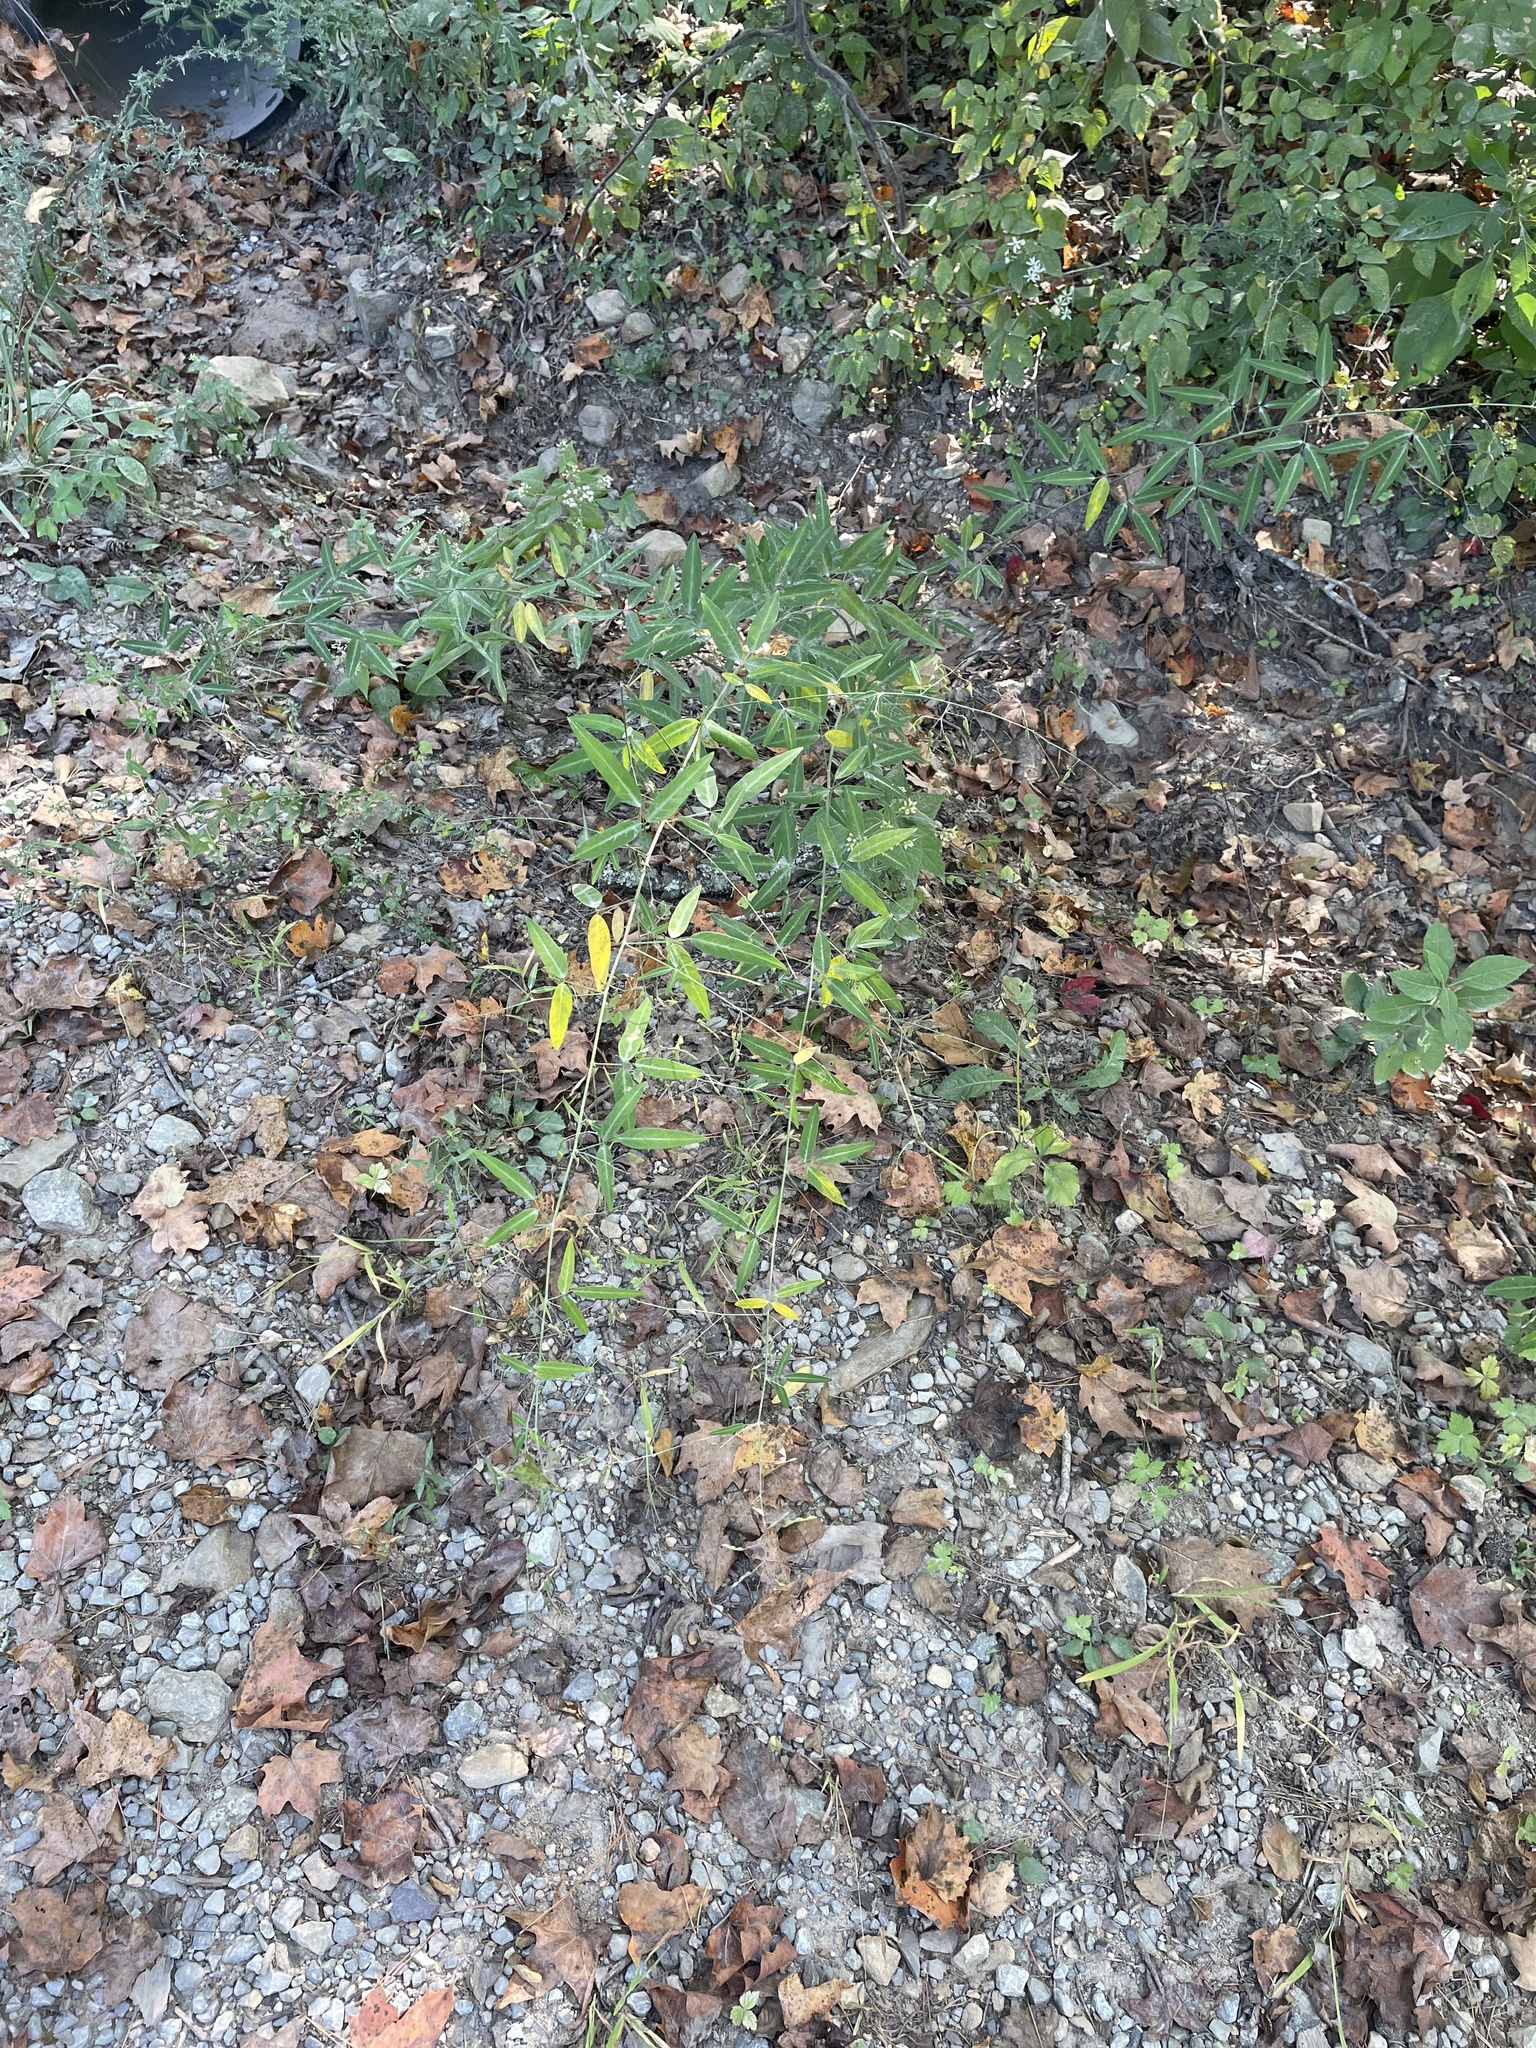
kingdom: Plantae
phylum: Tracheophyta
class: Magnoliopsida
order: Fabales
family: Fabaceae
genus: Desmodium
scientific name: Desmodium paniculatum
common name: Panicled tick-clover
